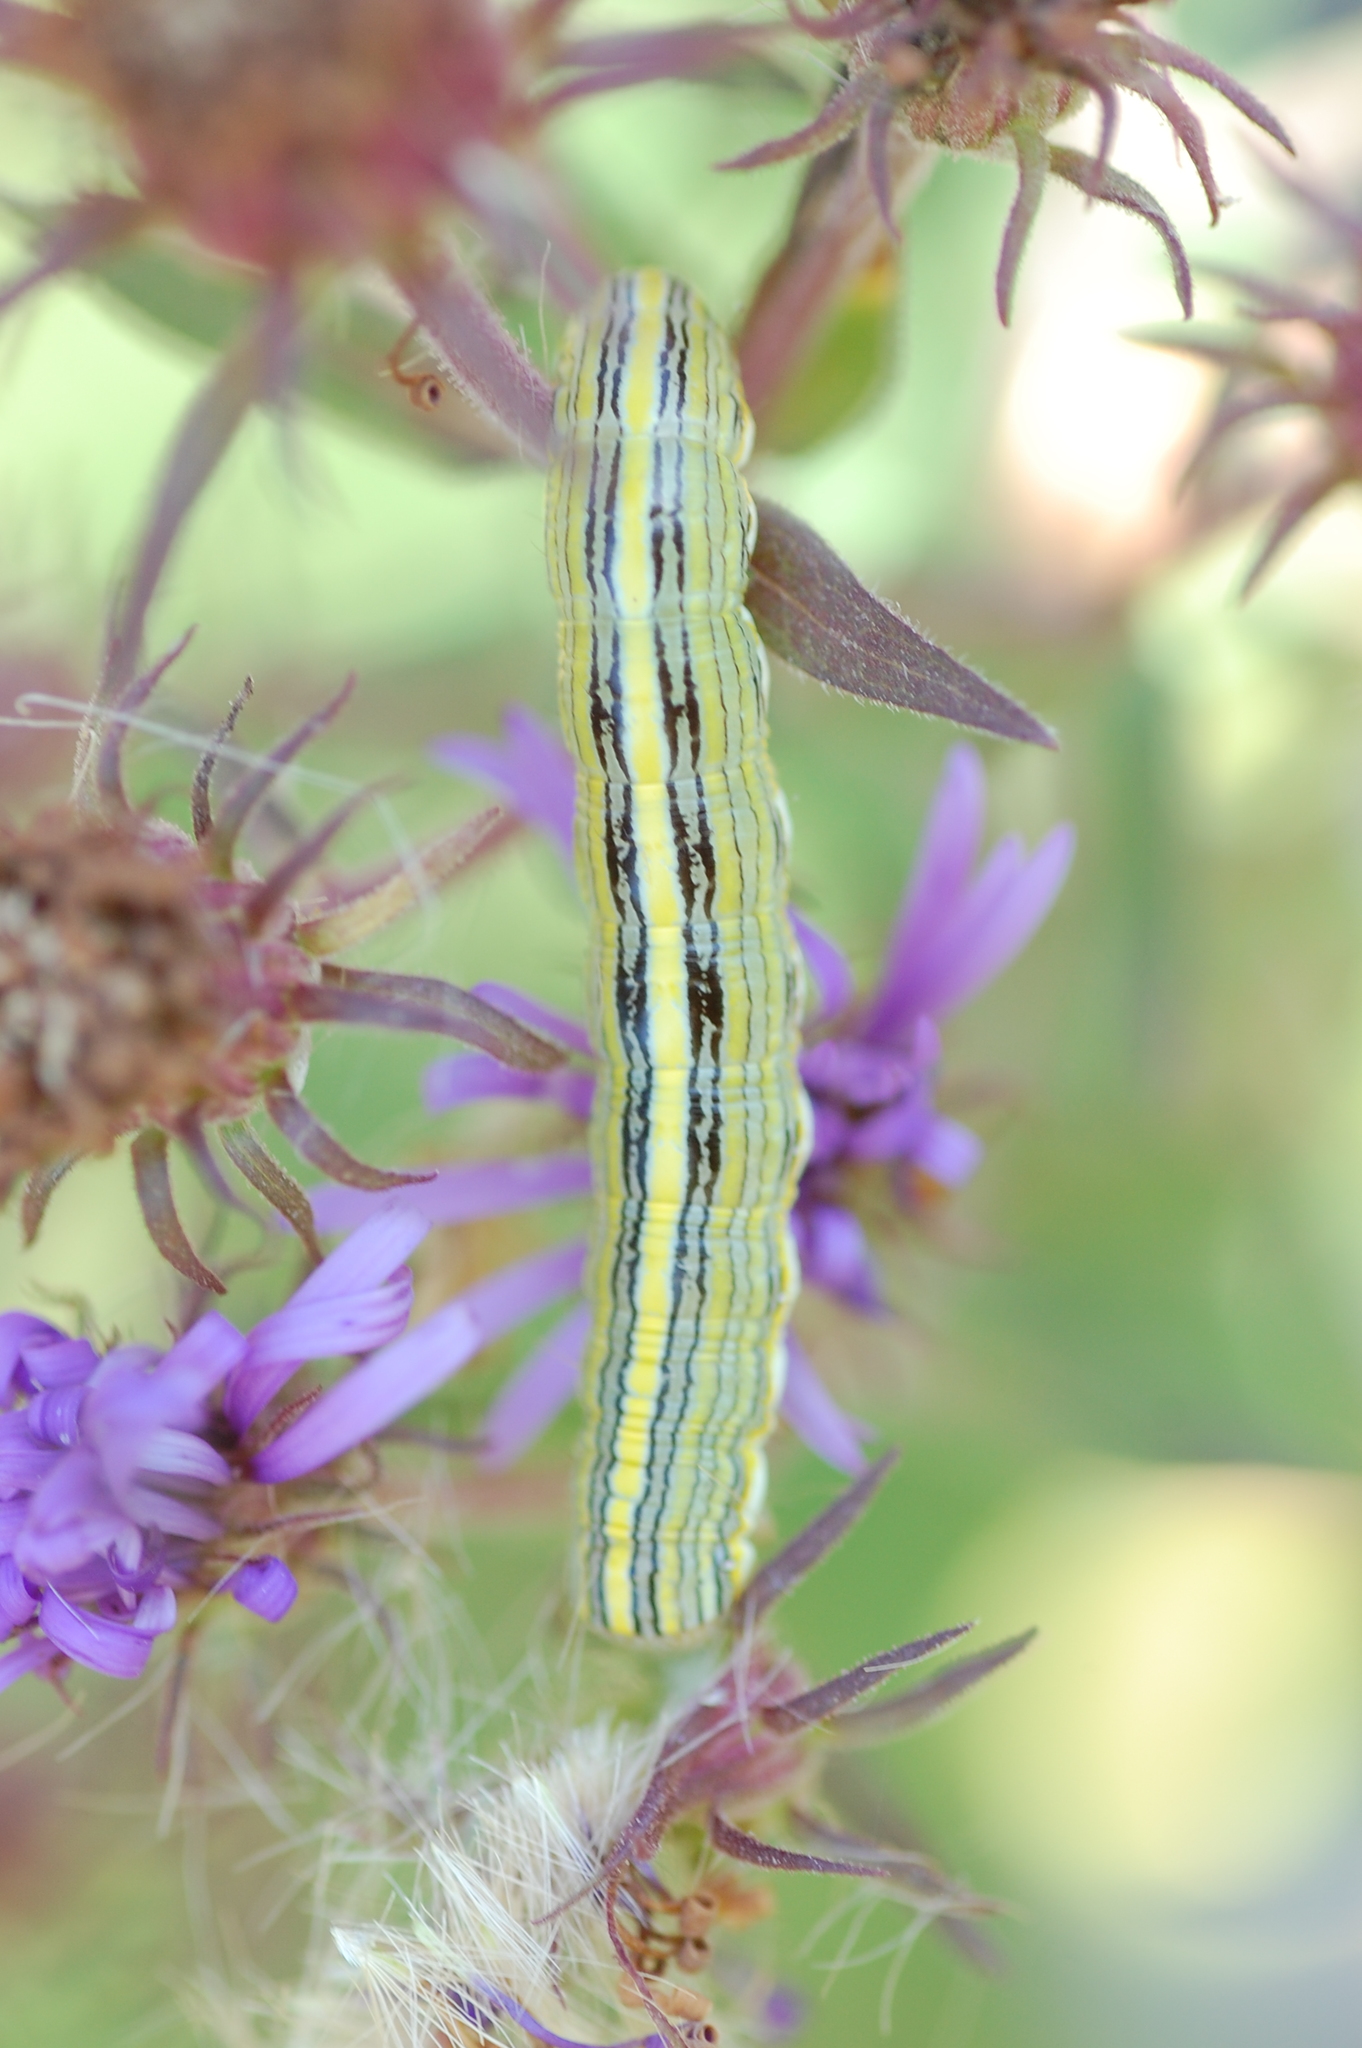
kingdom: Animalia
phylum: Arthropoda
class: Insecta
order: Lepidoptera
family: Noctuidae
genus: Cucullia
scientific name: Cucullia asteroides
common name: Asteroid moth
